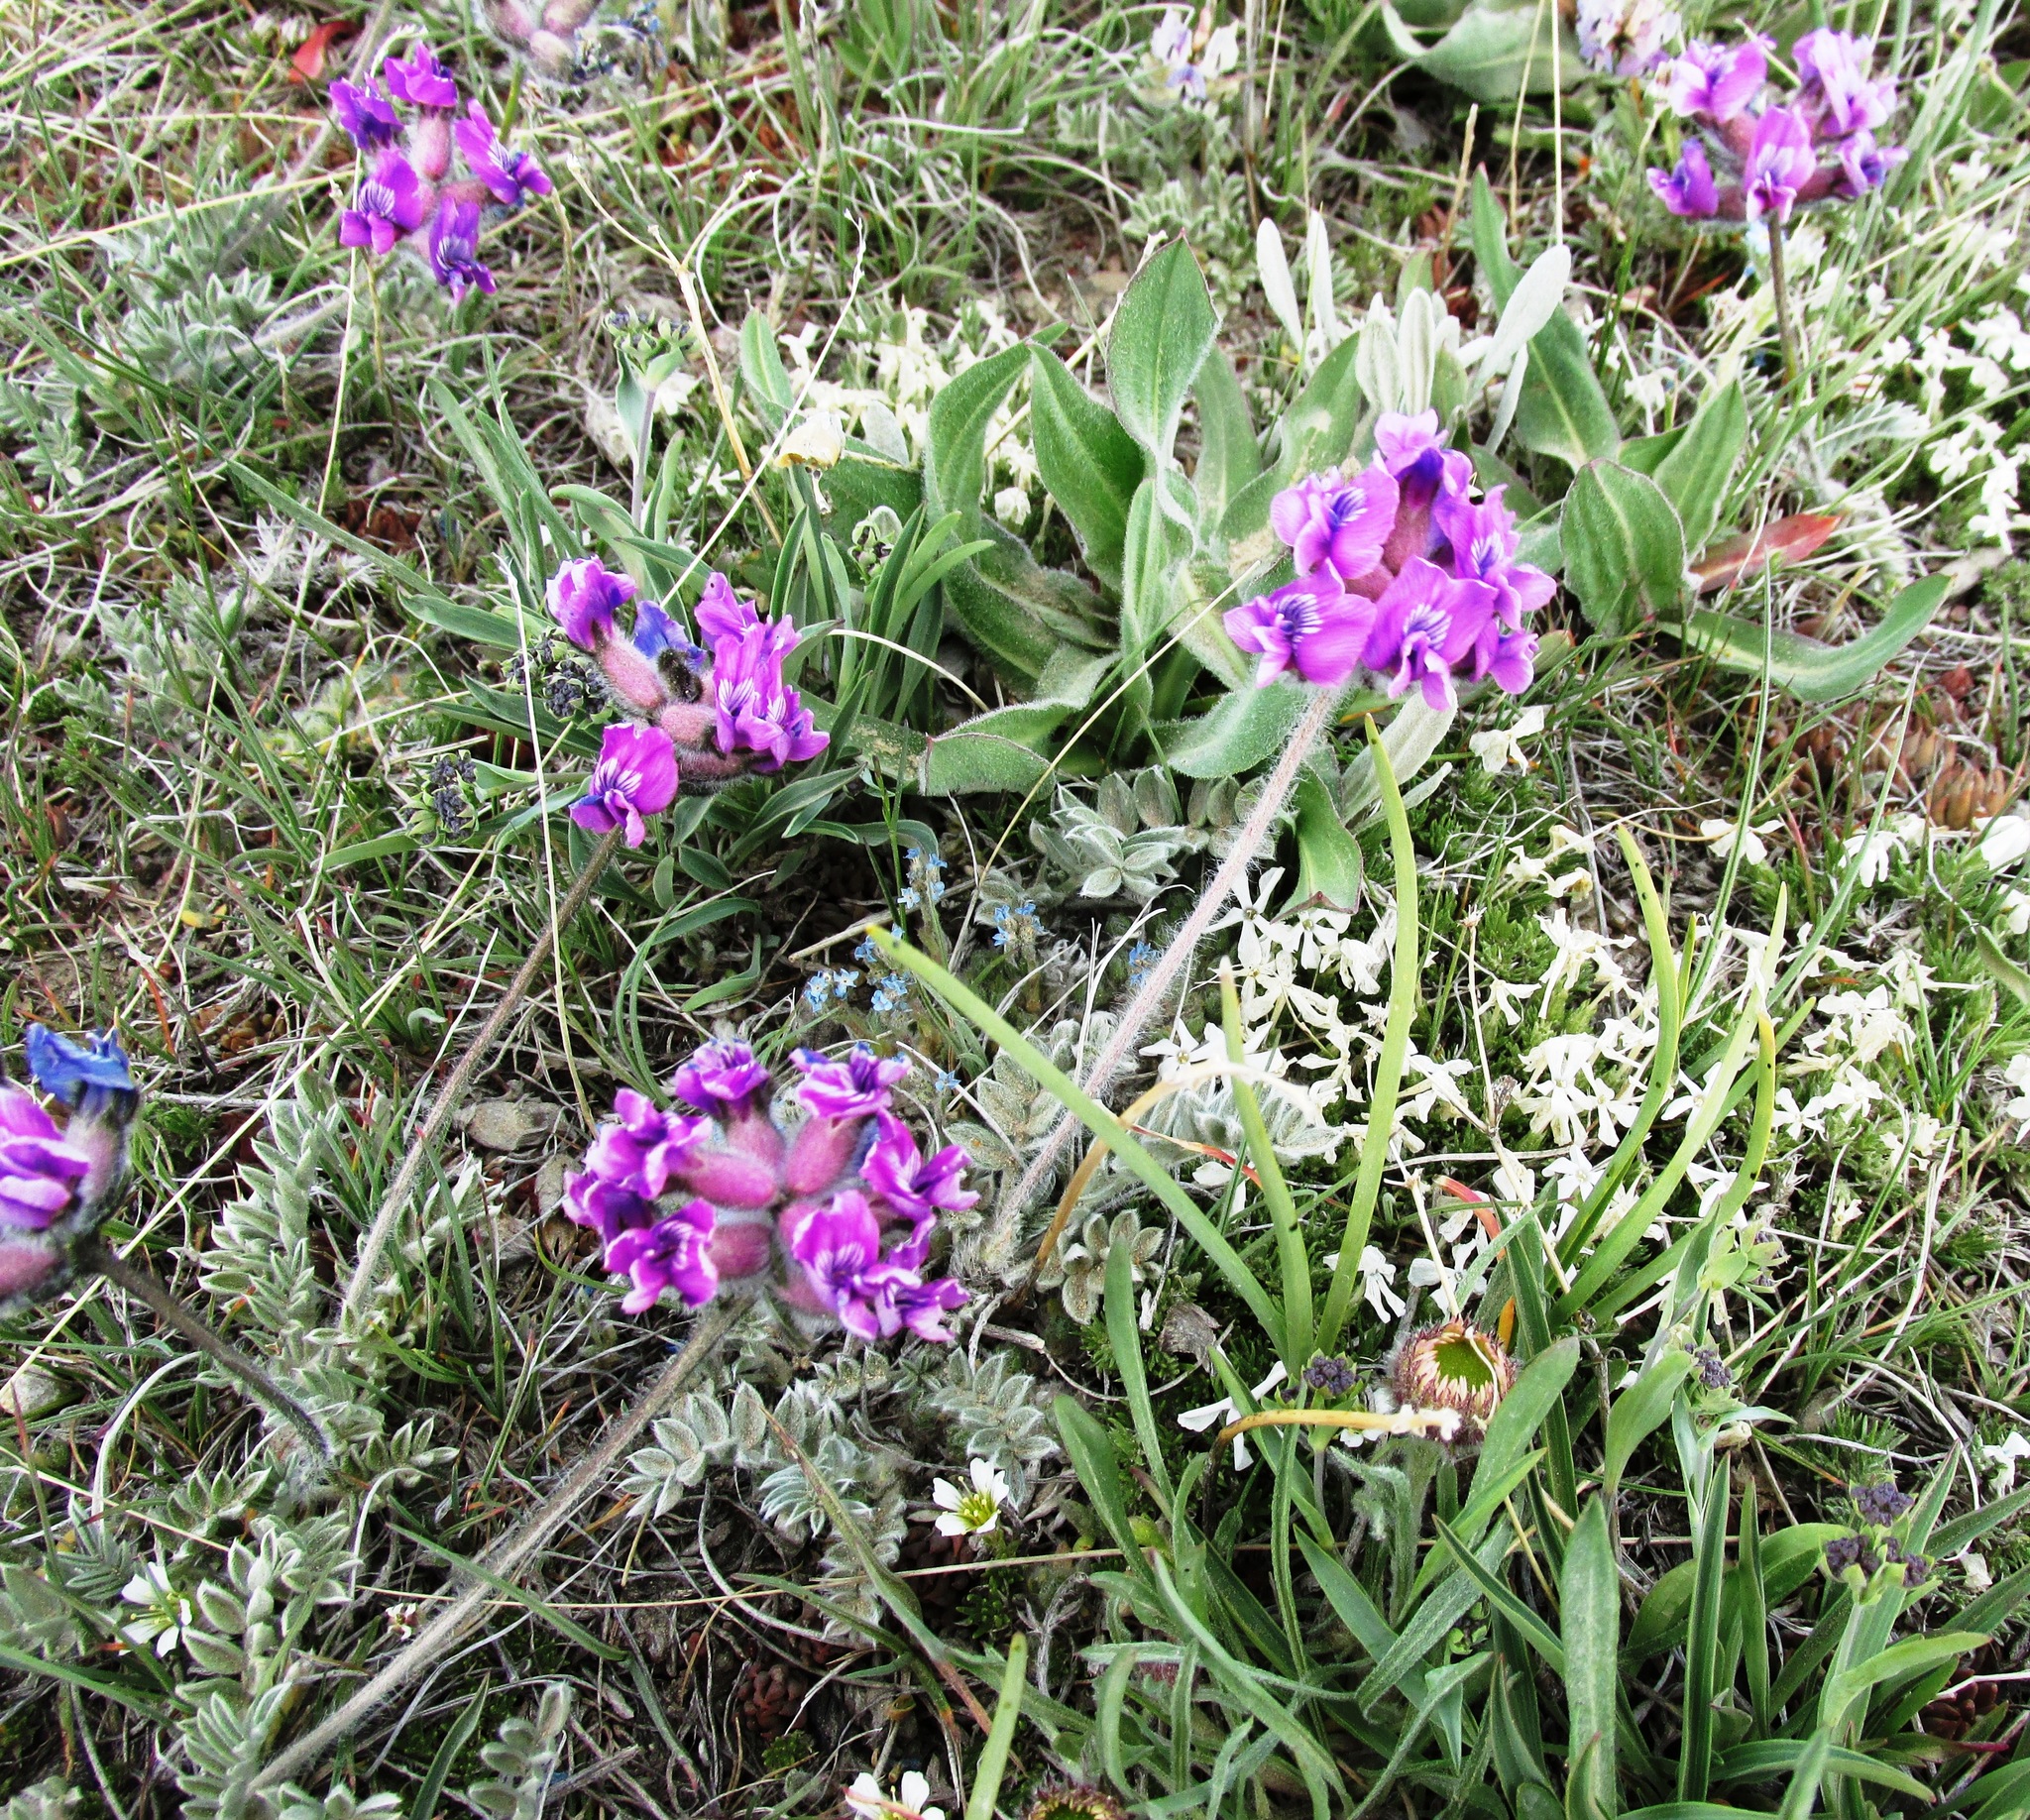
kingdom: Plantae
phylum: Tracheophyta
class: Magnoliopsida
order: Fabales
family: Fabaceae
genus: Oxytropis
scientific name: Oxytropis lagopus
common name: Hare's-foot locoweed
